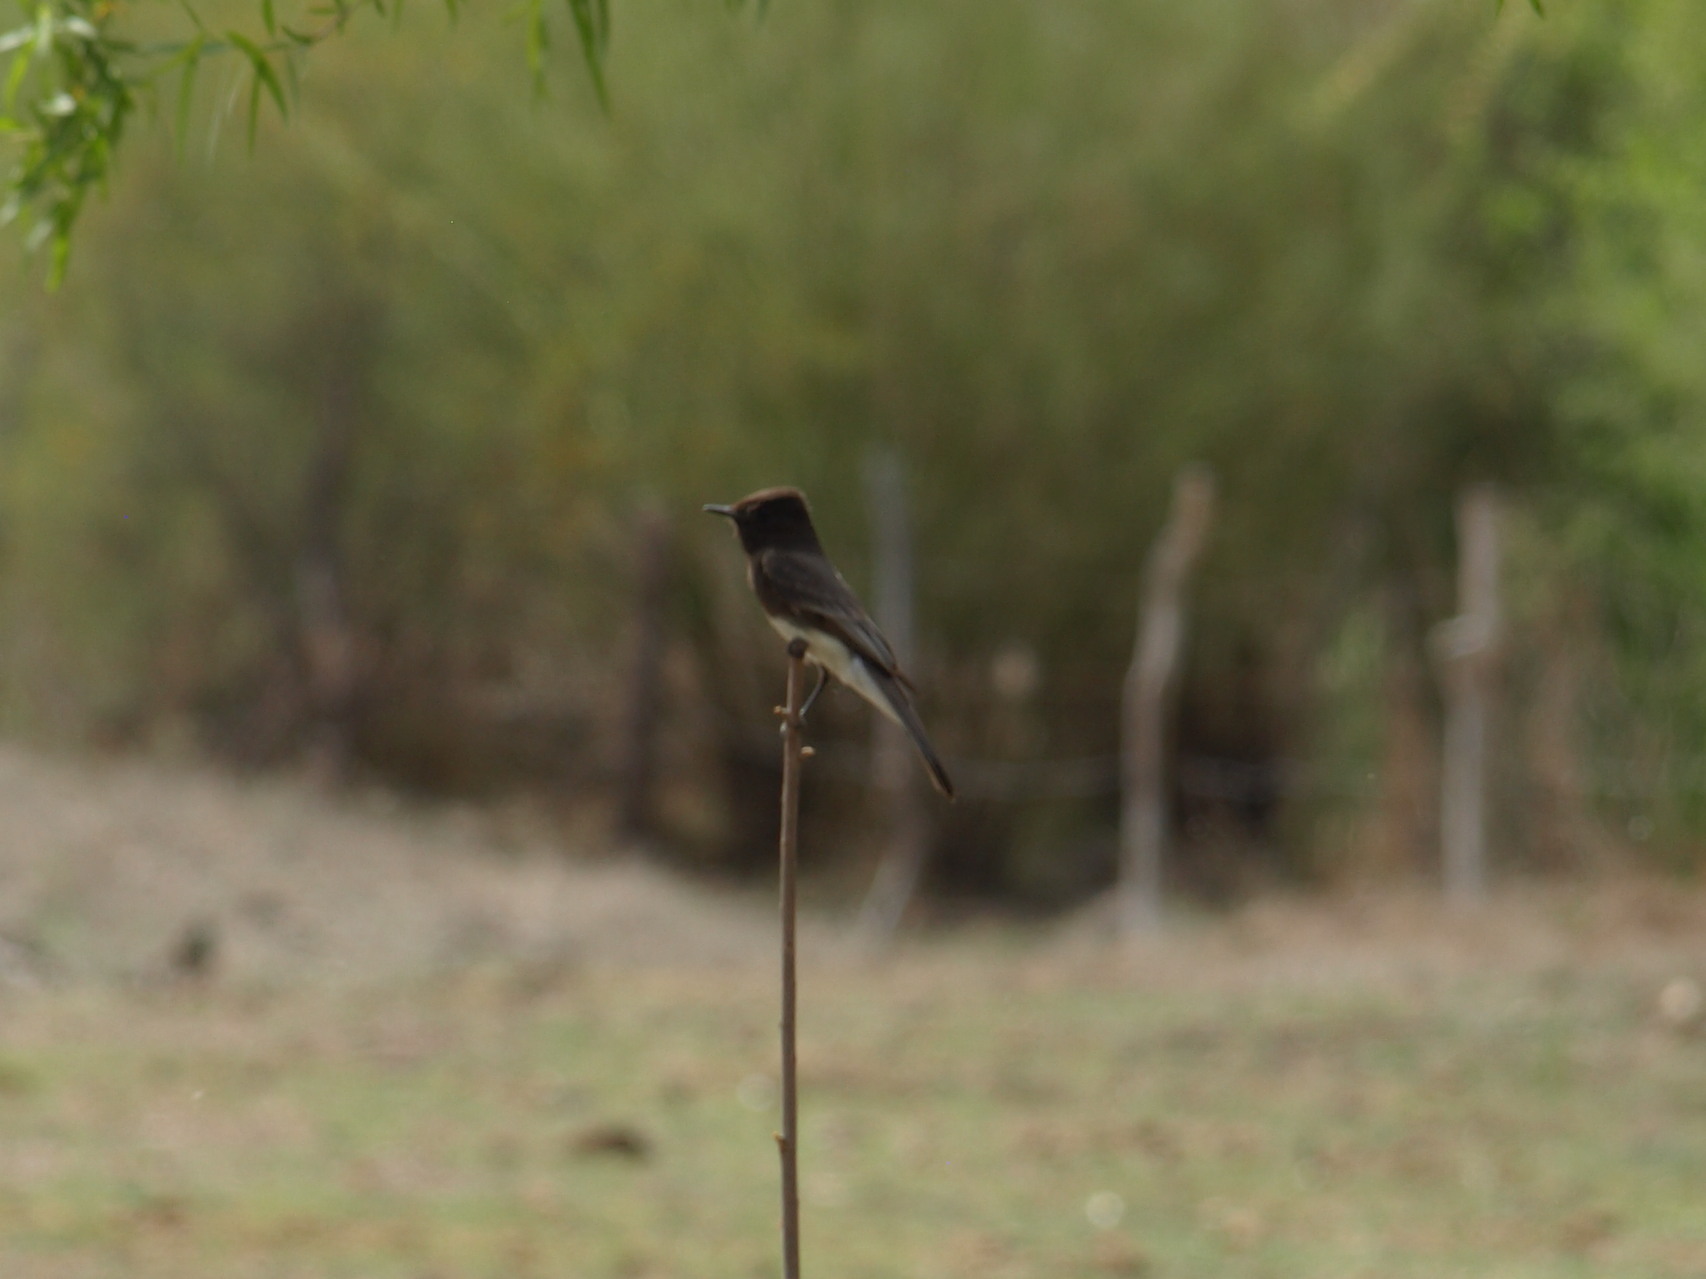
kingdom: Animalia
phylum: Chordata
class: Aves
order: Passeriformes
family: Tyrannidae
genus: Sayornis
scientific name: Sayornis nigricans
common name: Black phoebe
